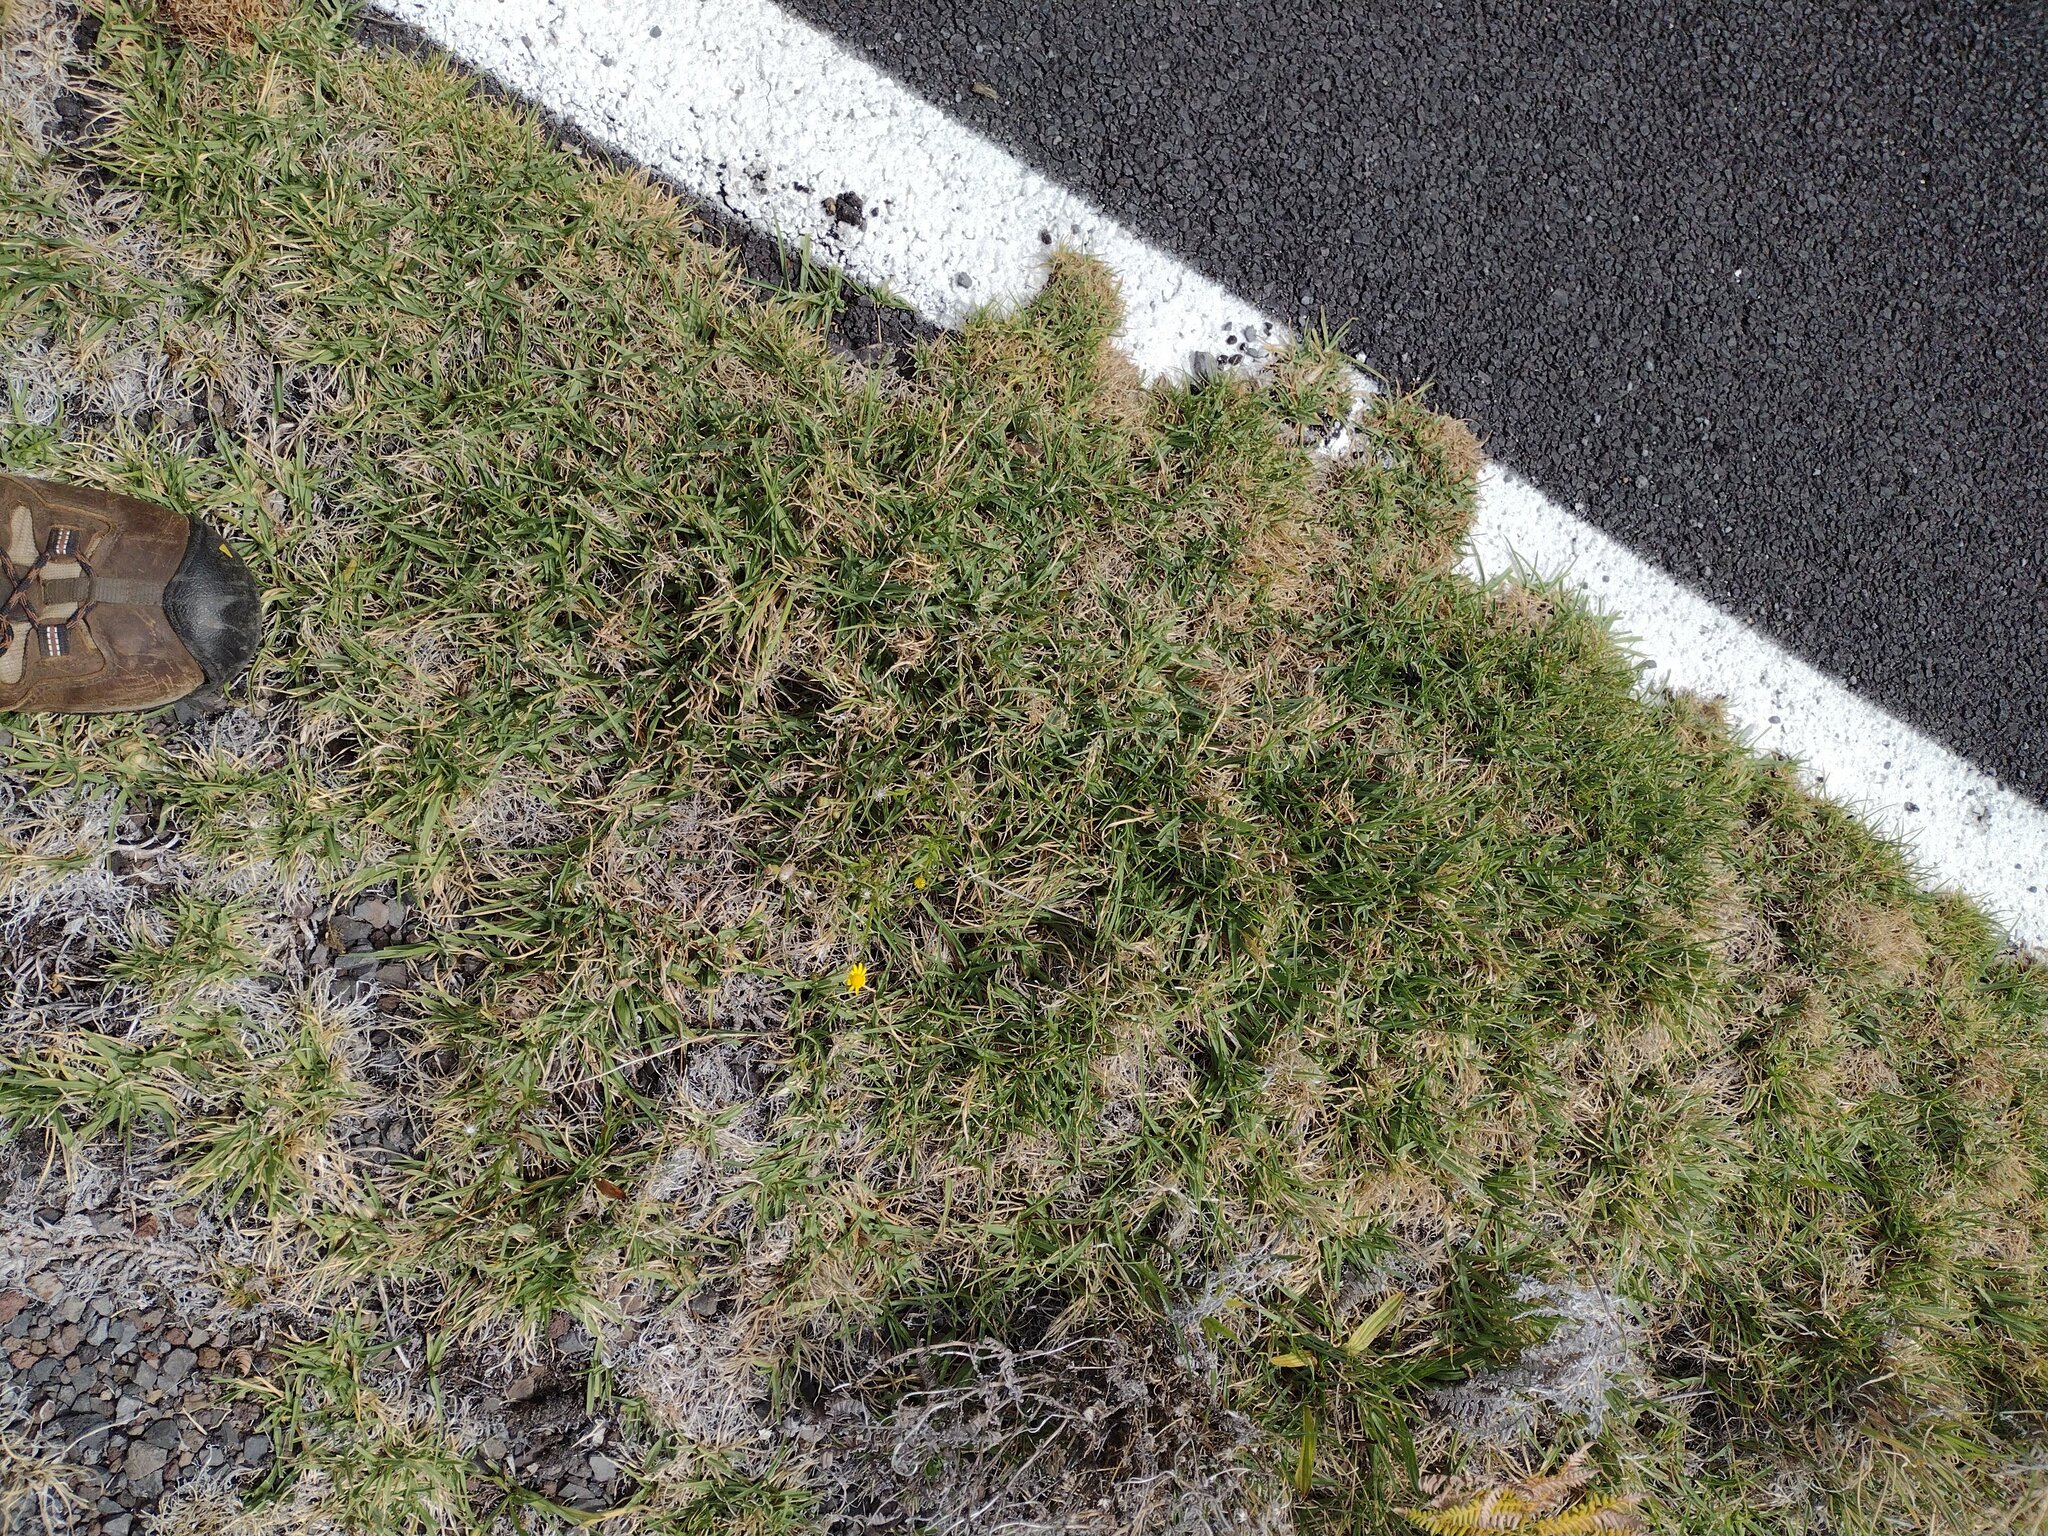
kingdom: Plantae
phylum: Tracheophyta
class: Liliopsida
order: Poales
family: Poaceae
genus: Cenchrus
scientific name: Cenchrus clandestinus
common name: Kikuyugrass
